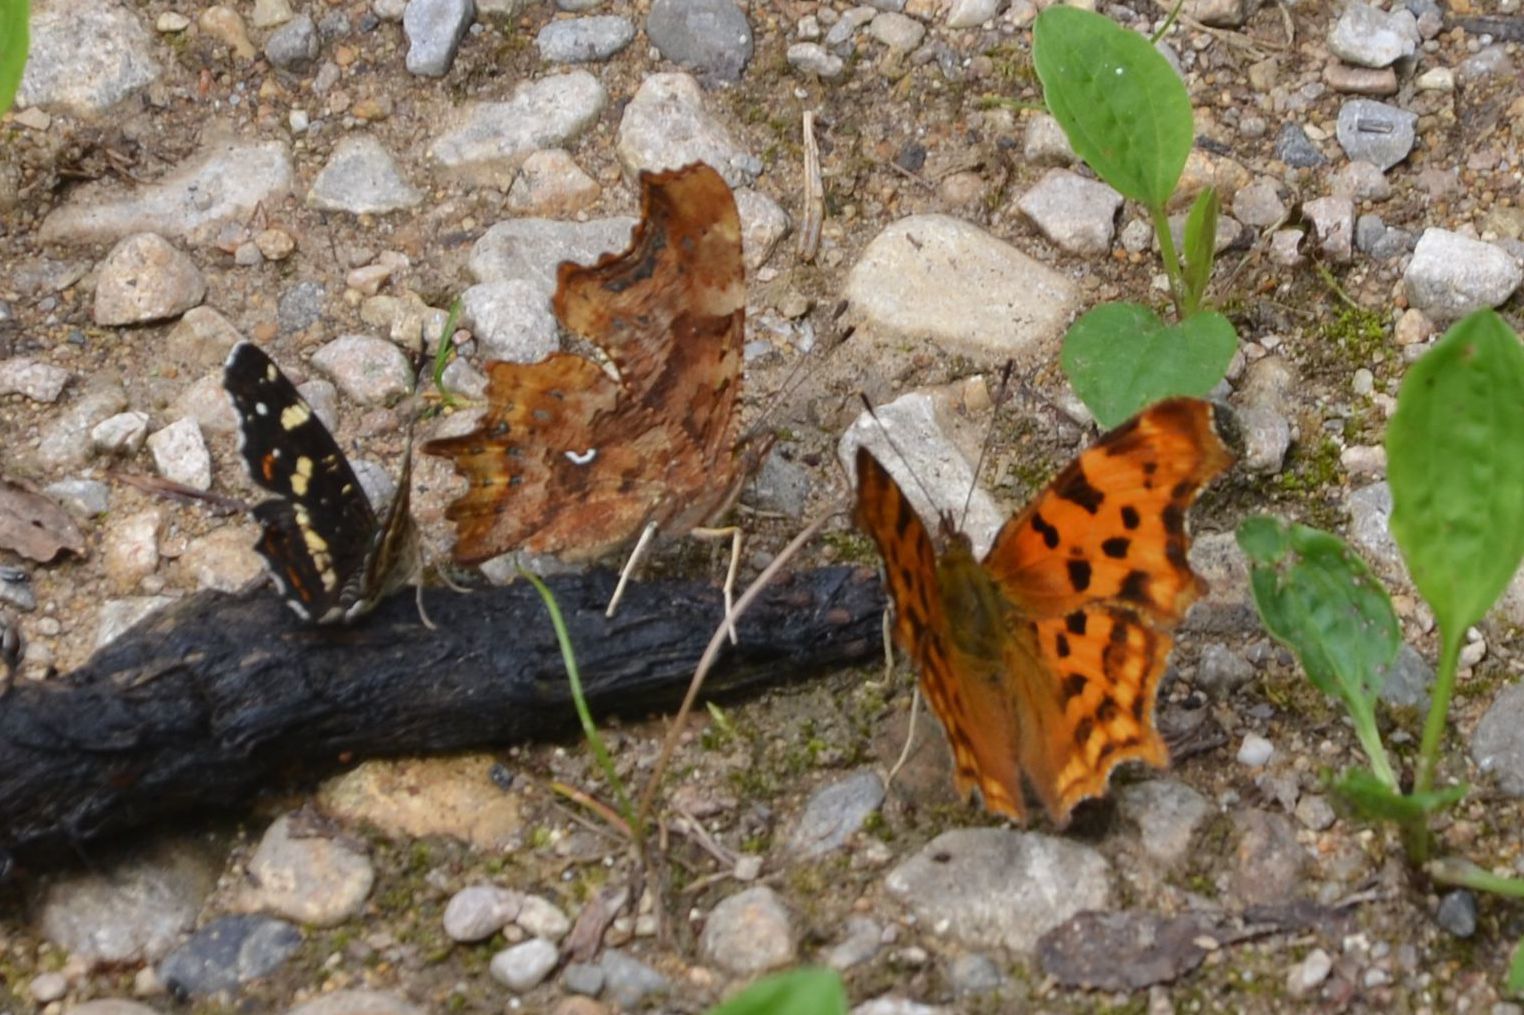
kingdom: Animalia
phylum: Arthropoda
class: Insecta
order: Lepidoptera
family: Nymphalidae
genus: Polygonia
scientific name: Polygonia c-album
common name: Comma
